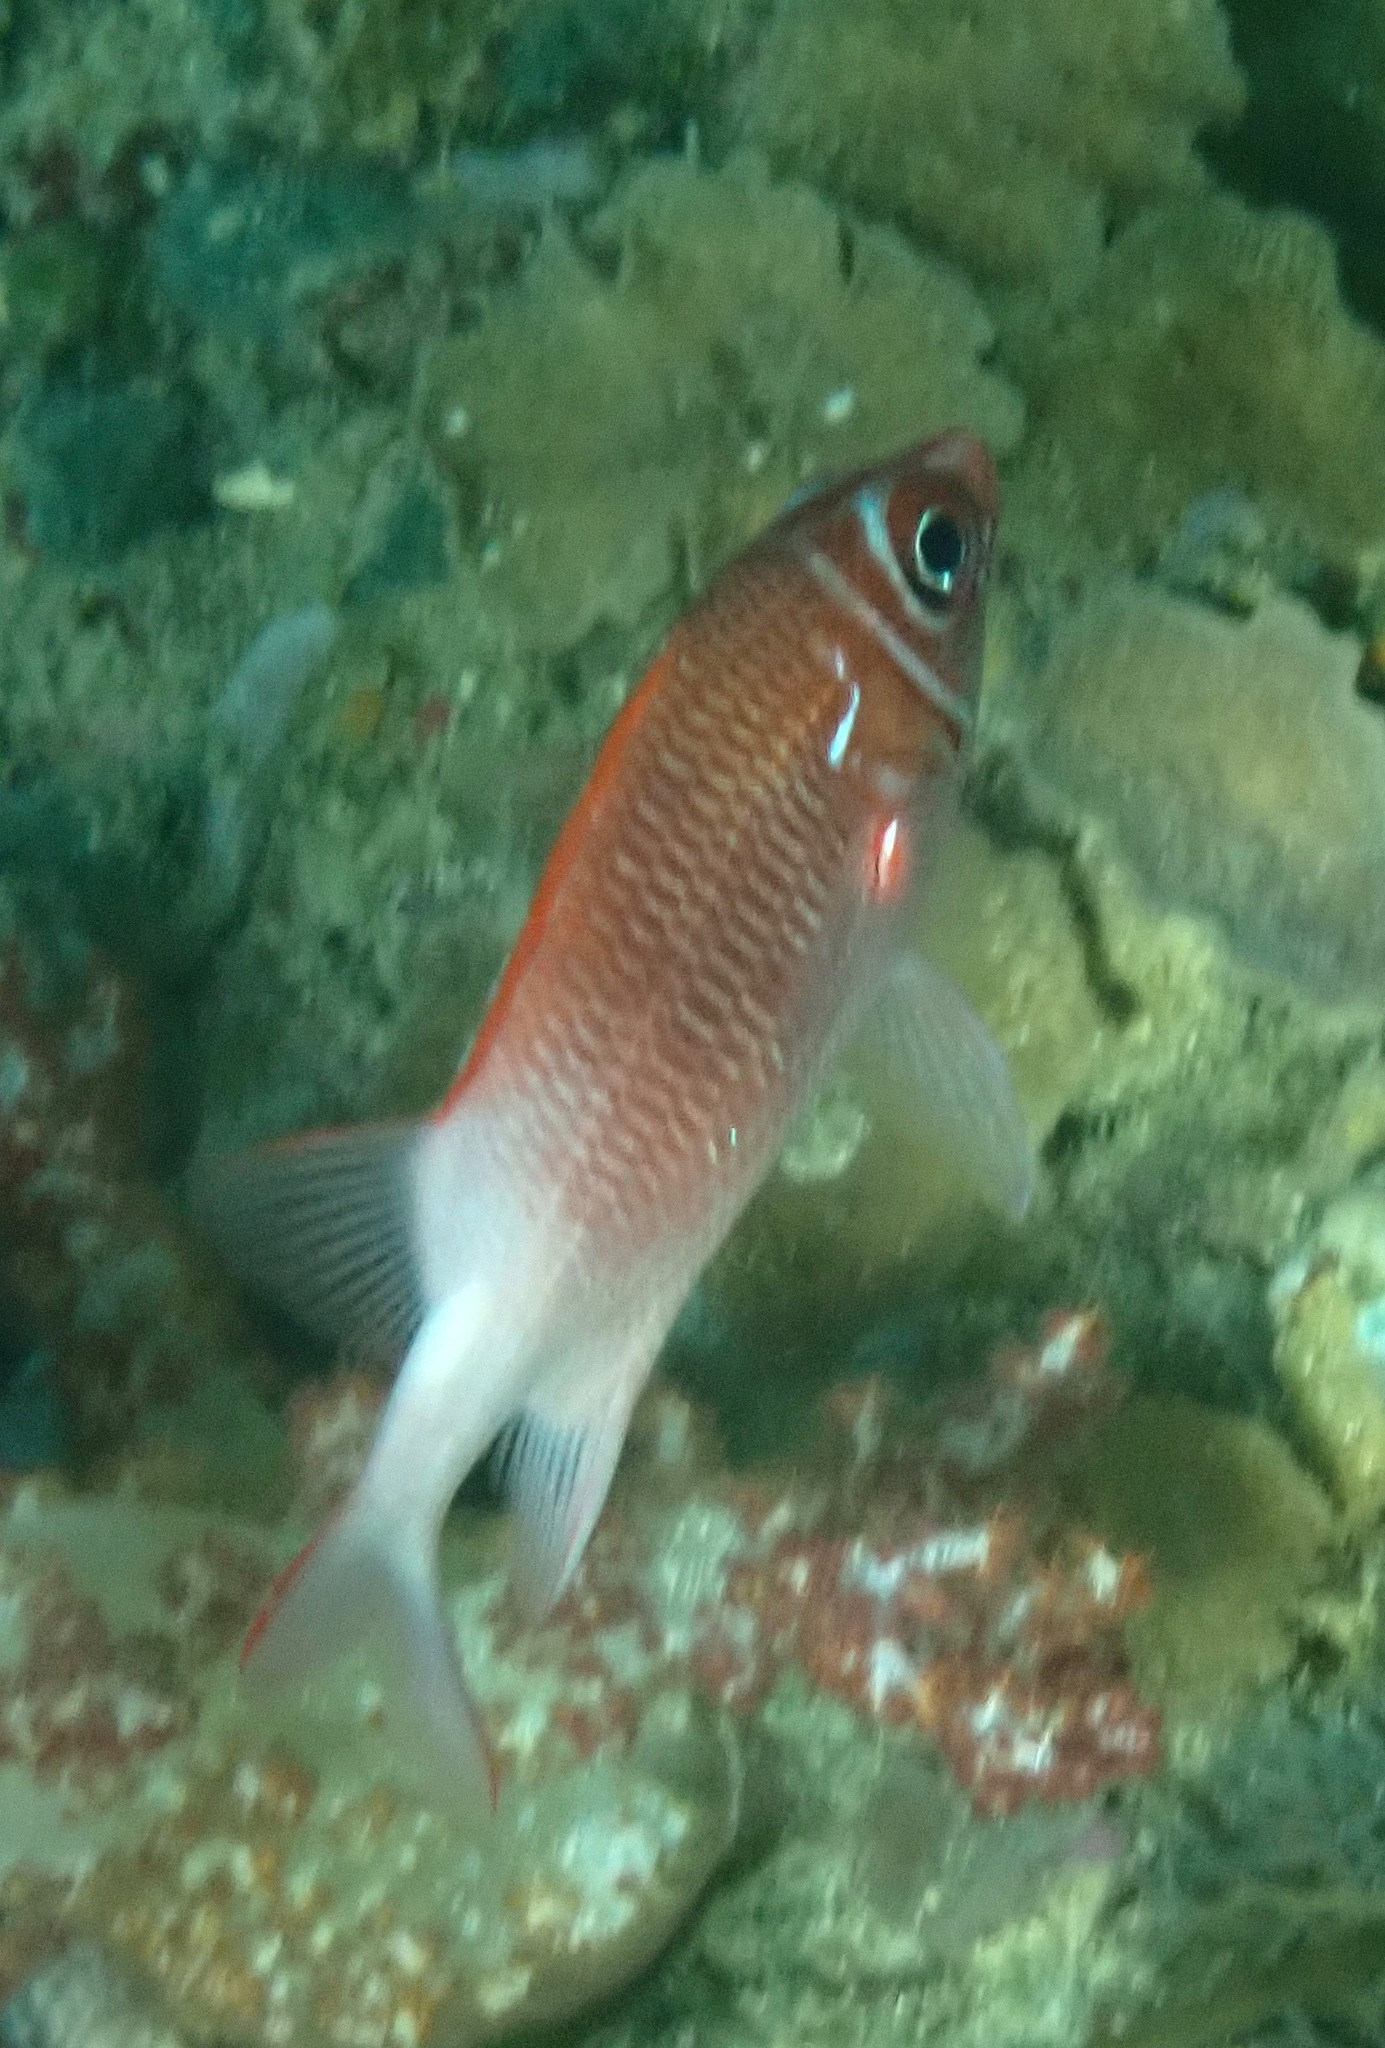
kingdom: Animalia
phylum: Chordata
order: Beryciformes
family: Holocentridae
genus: Sargocentron
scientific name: Sargocentron caudimaculatum
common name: Fanfin soldier
